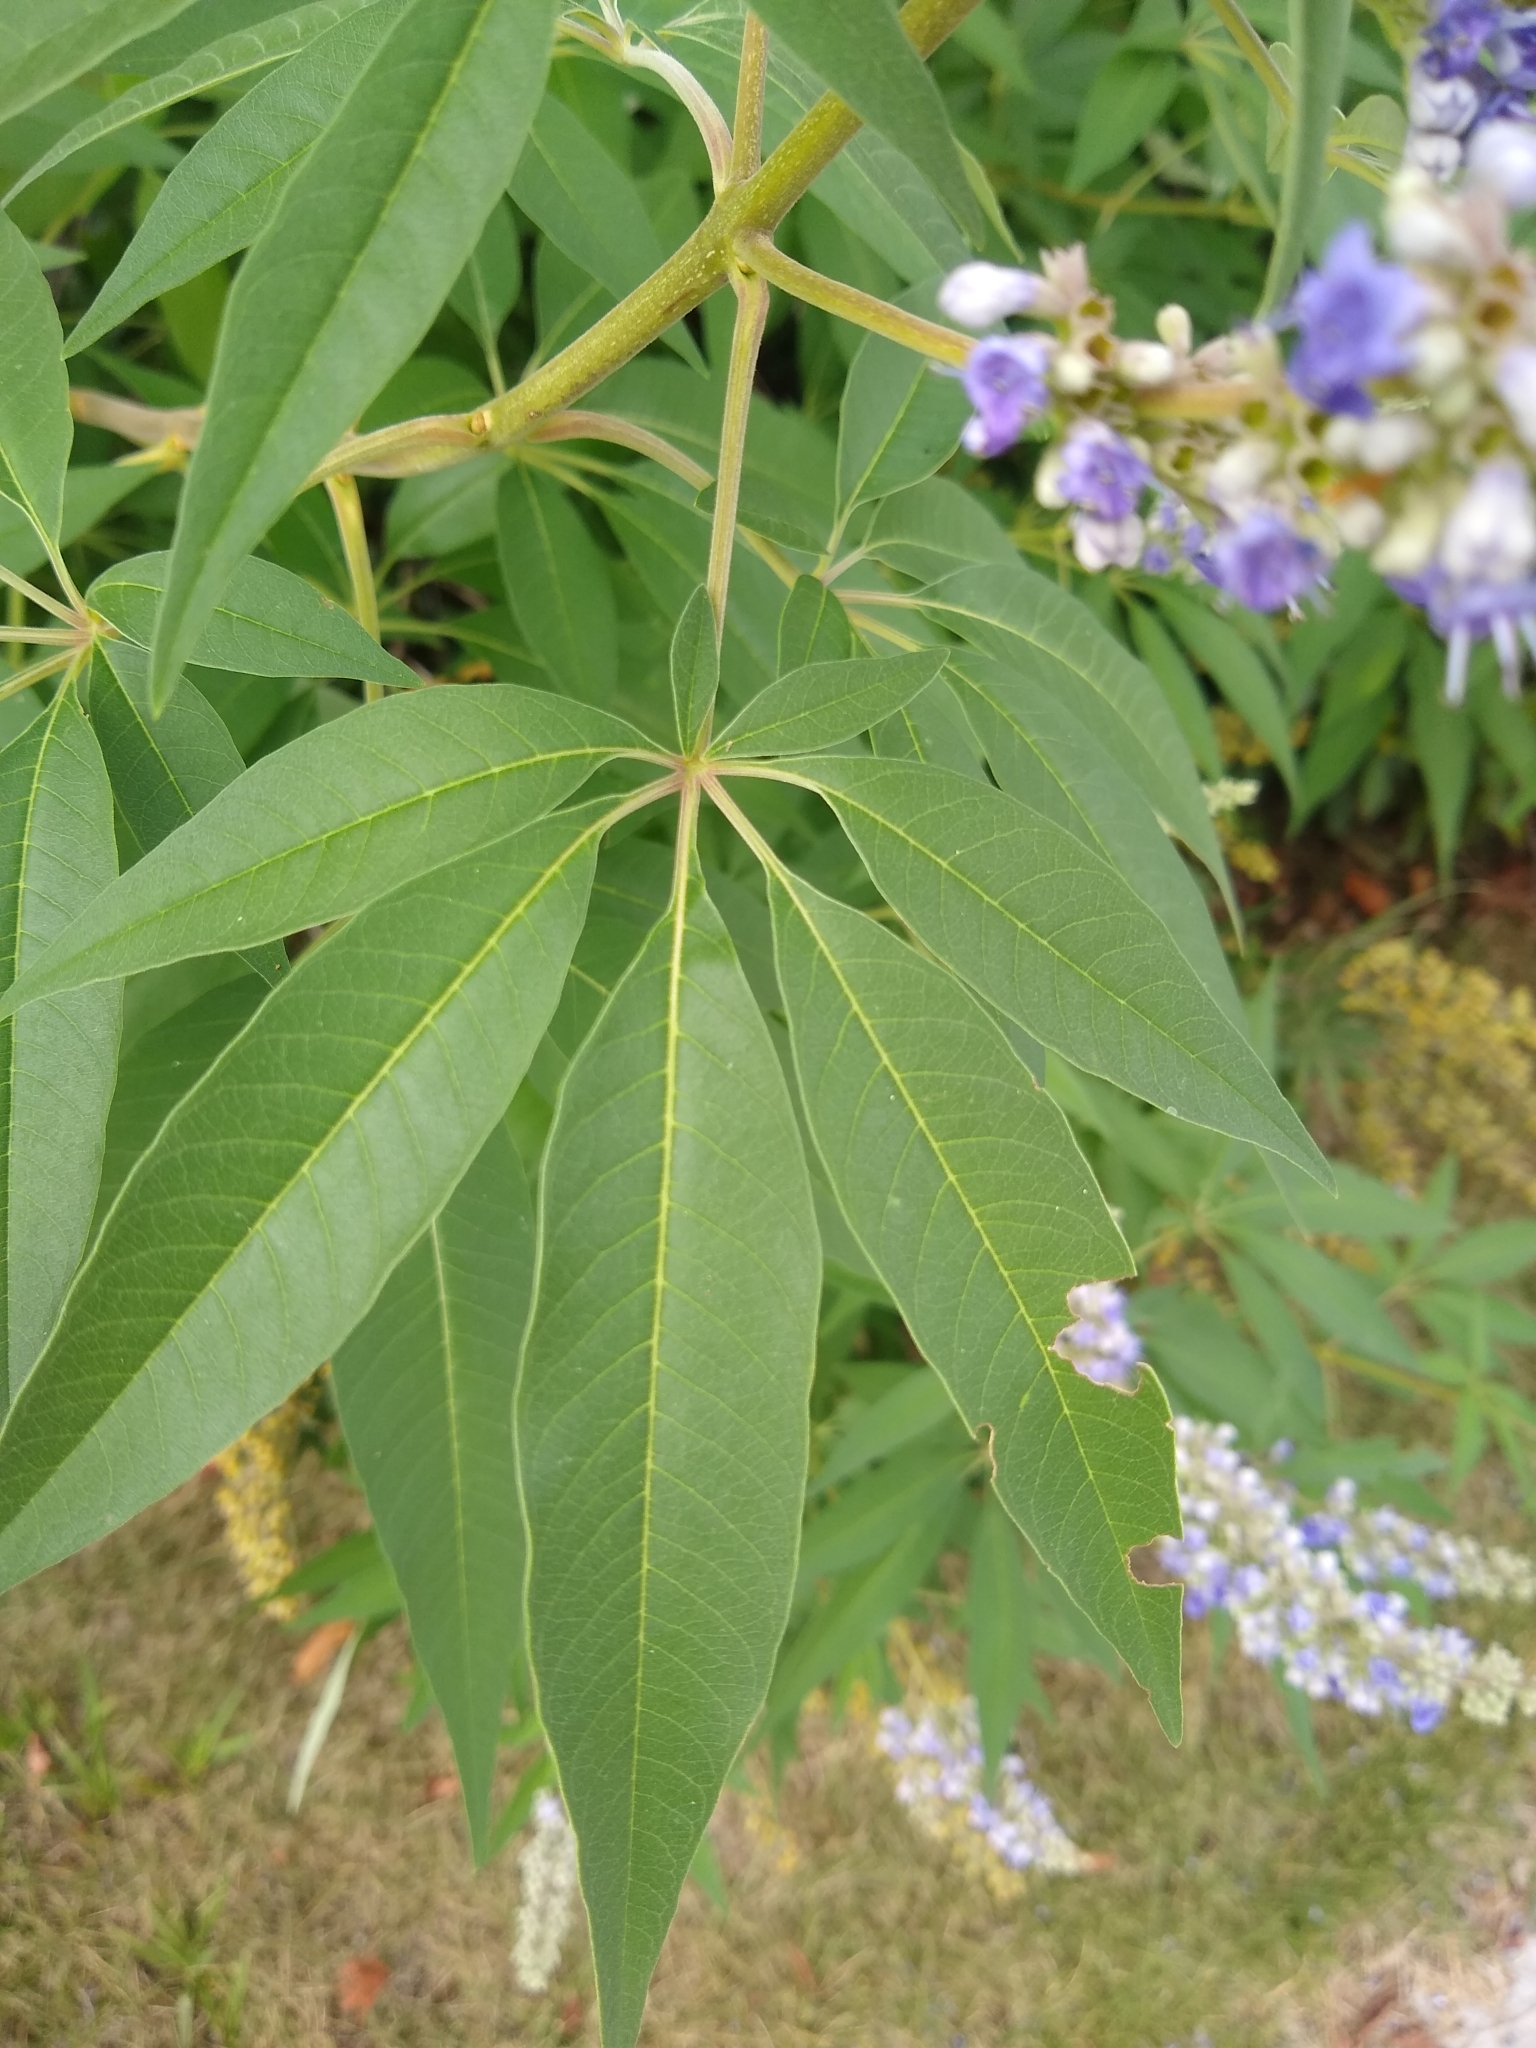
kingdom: Plantae
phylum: Tracheophyta
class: Magnoliopsida
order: Lamiales
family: Lamiaceae
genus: Vitex
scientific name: Vitex agnus-castus
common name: Chasteberry
